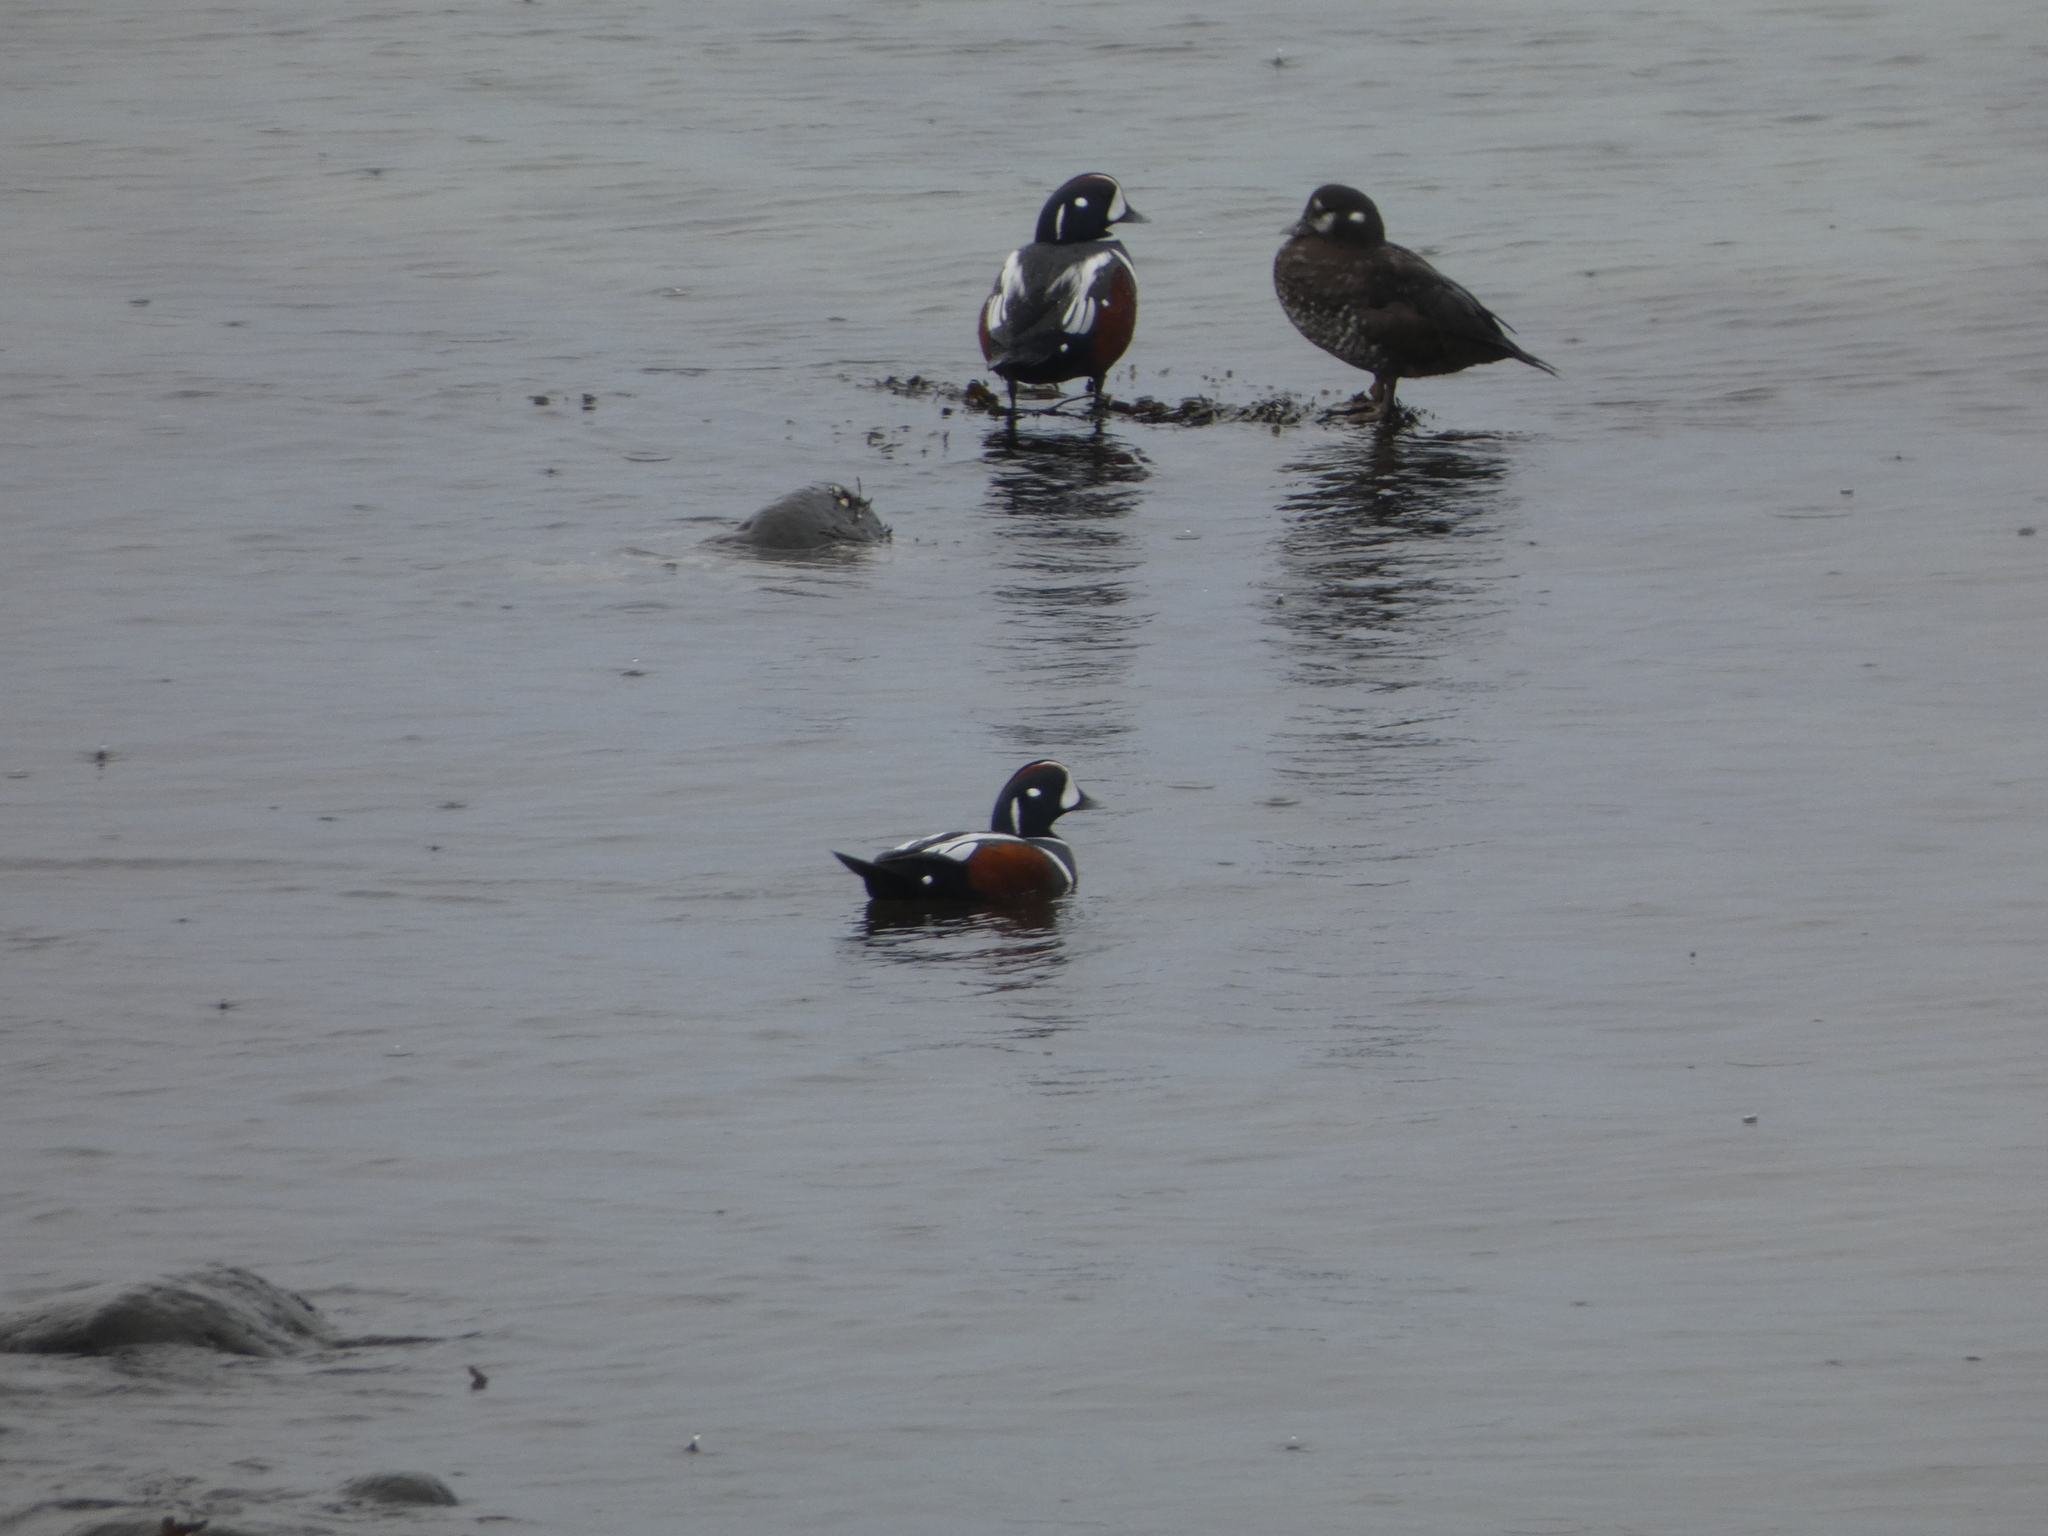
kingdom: Animalia
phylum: Chordata
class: Aves
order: Anseriformes
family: Anatidae
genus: Histrionicus
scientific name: Histrionicus histrionicus
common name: Harlequin duck
